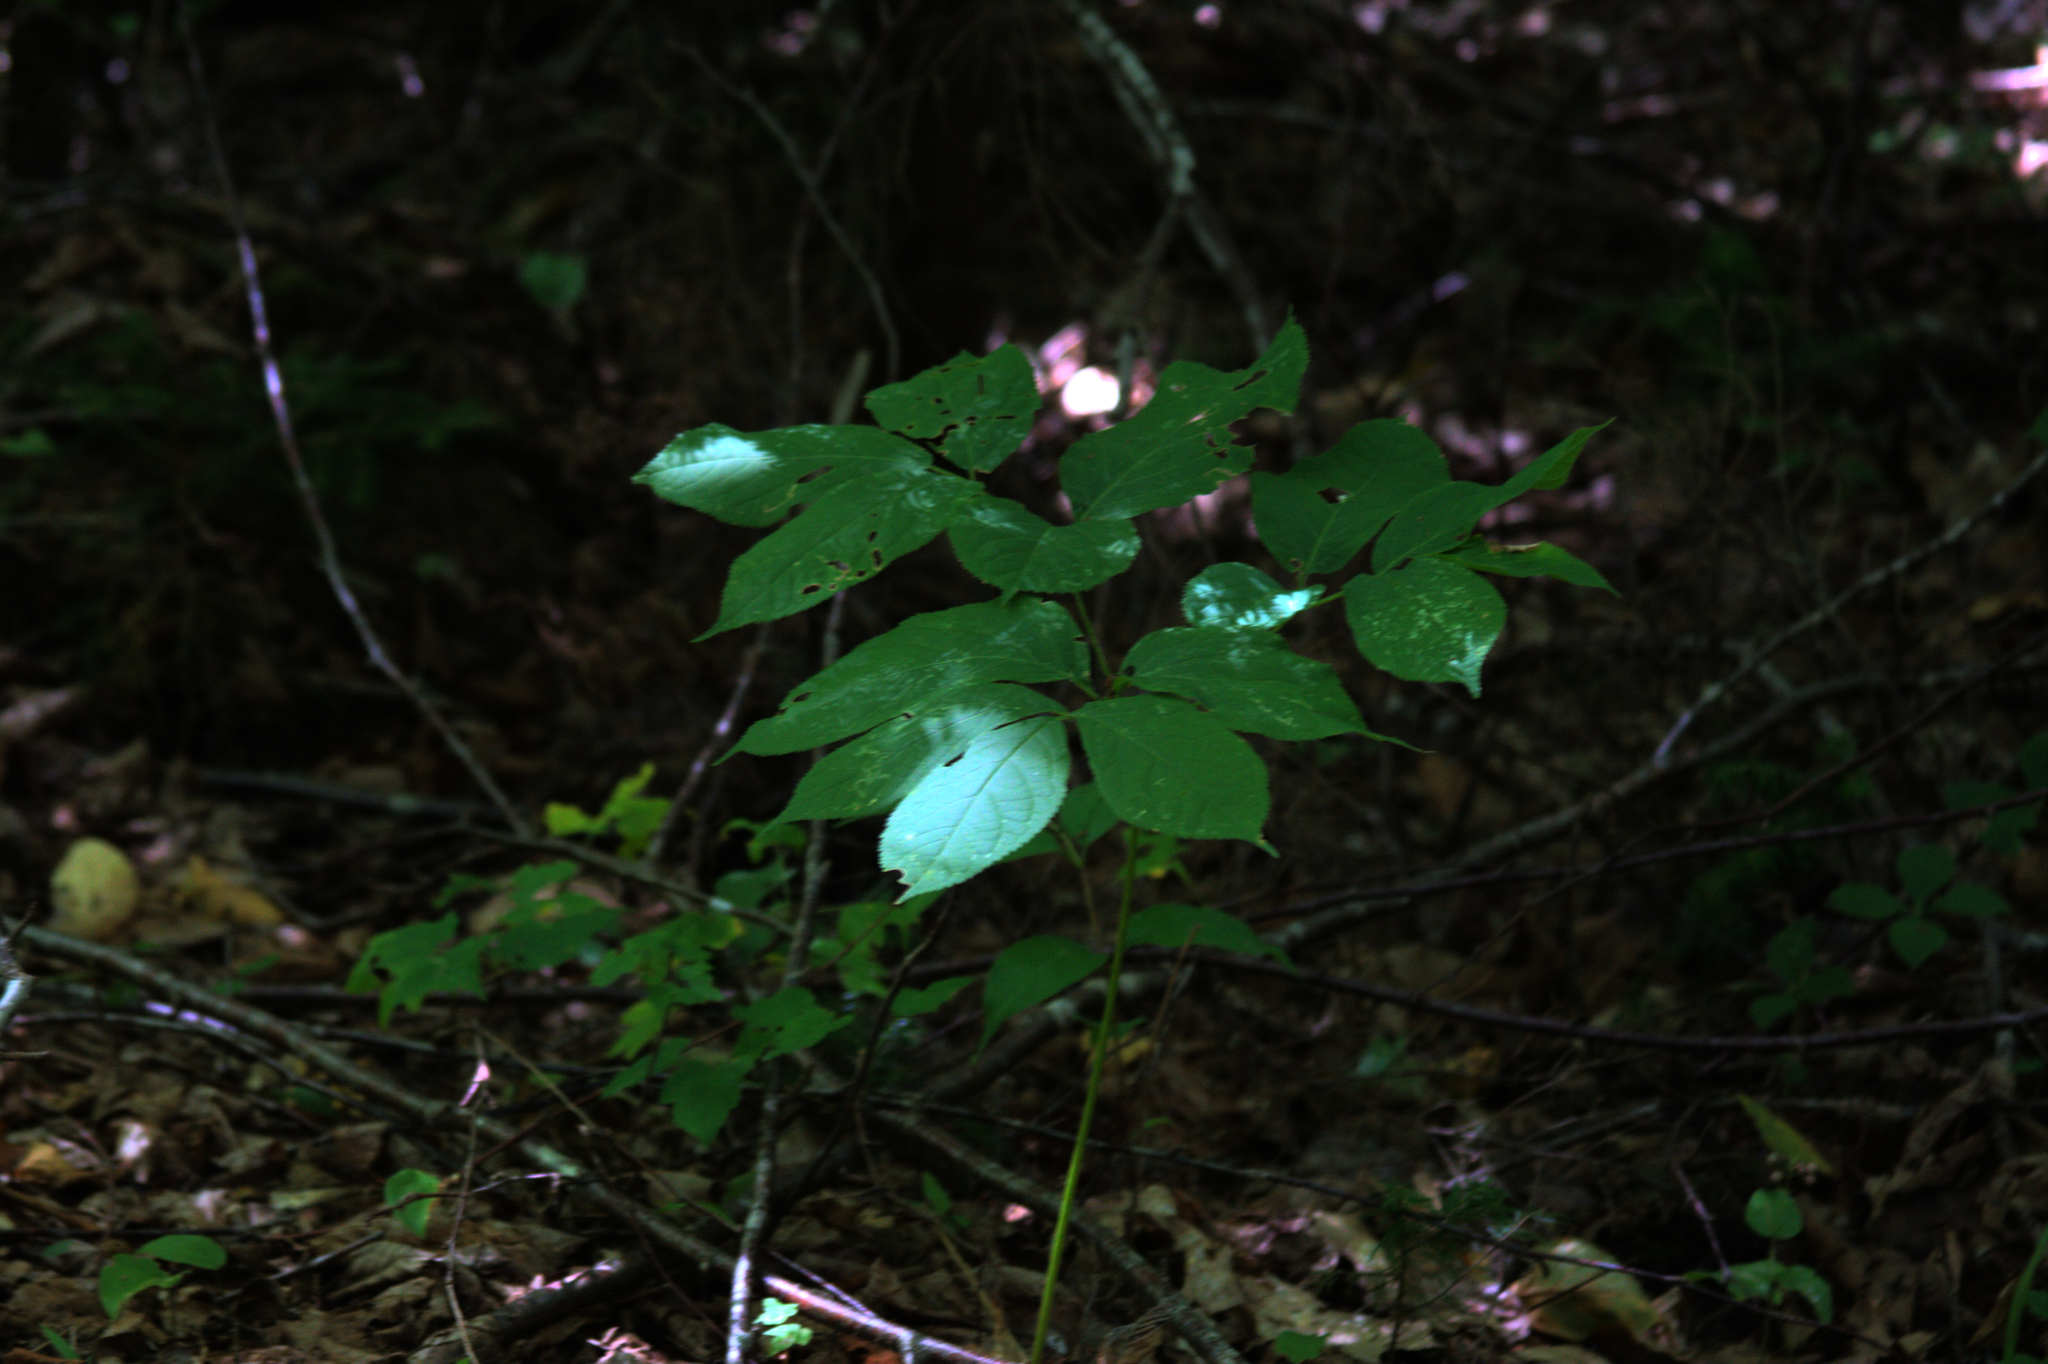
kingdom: Plantae
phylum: Tracheophyta
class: Magnoliopsida
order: Apiales
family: Araliaceae
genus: Aralia
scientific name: Aralia nudicaulis
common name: Wild sarsaparilla
